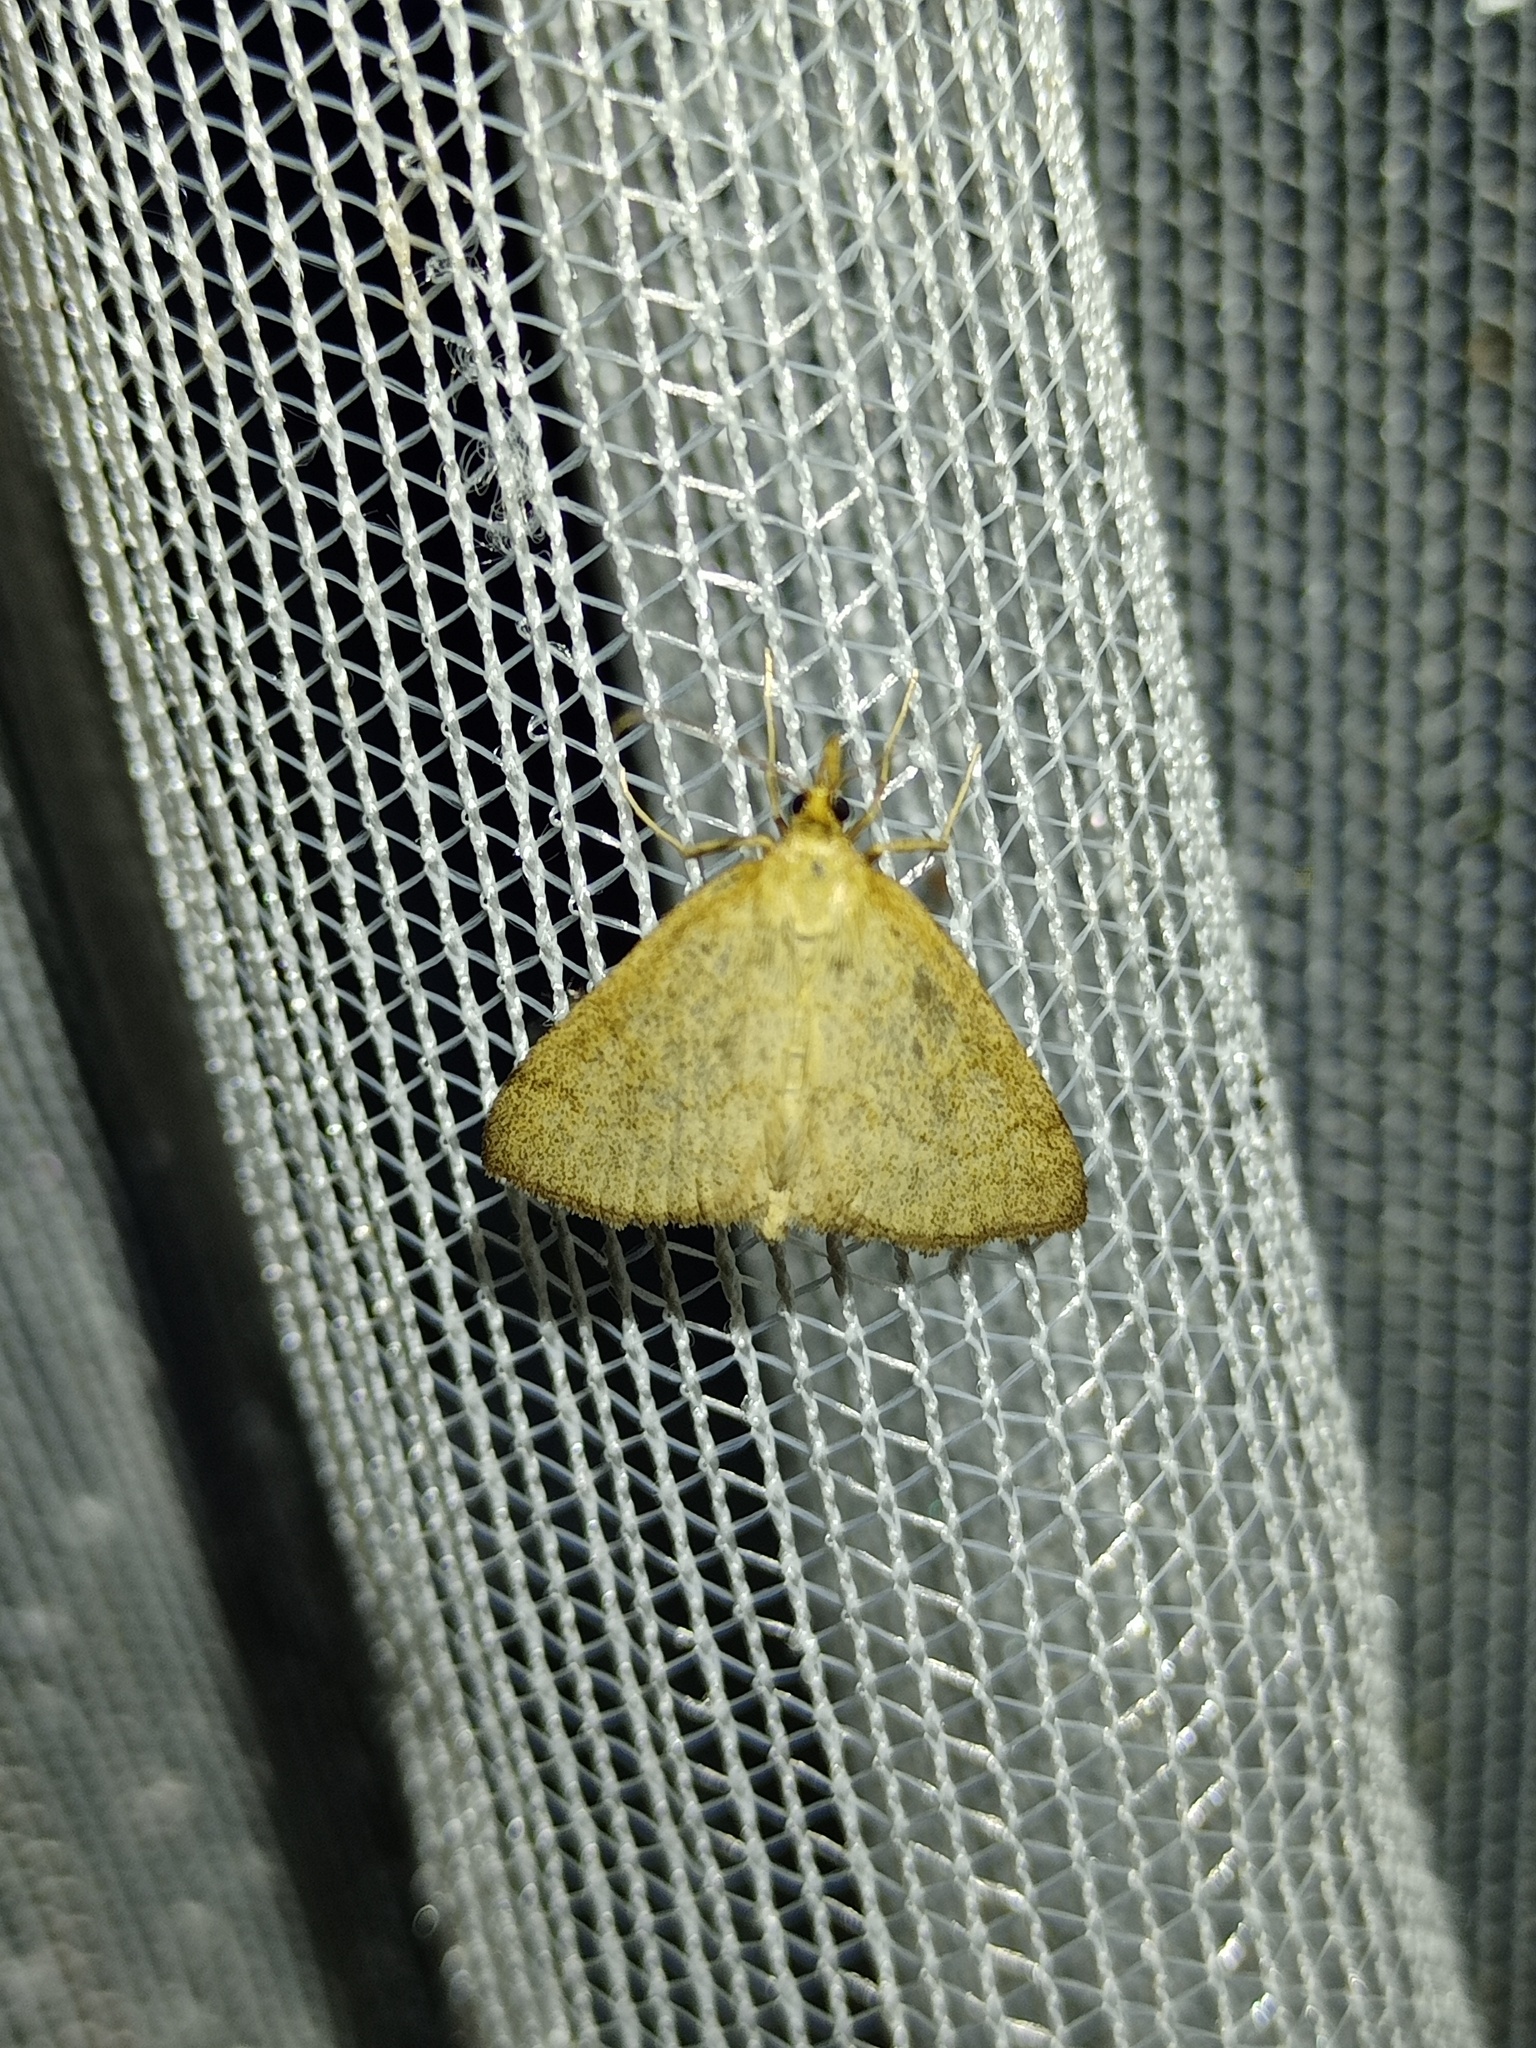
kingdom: Animalia
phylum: Arthropoda
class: Insecta
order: Lepidoptera
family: Crambidae
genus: Psammotis
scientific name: Psammotis viminalis
